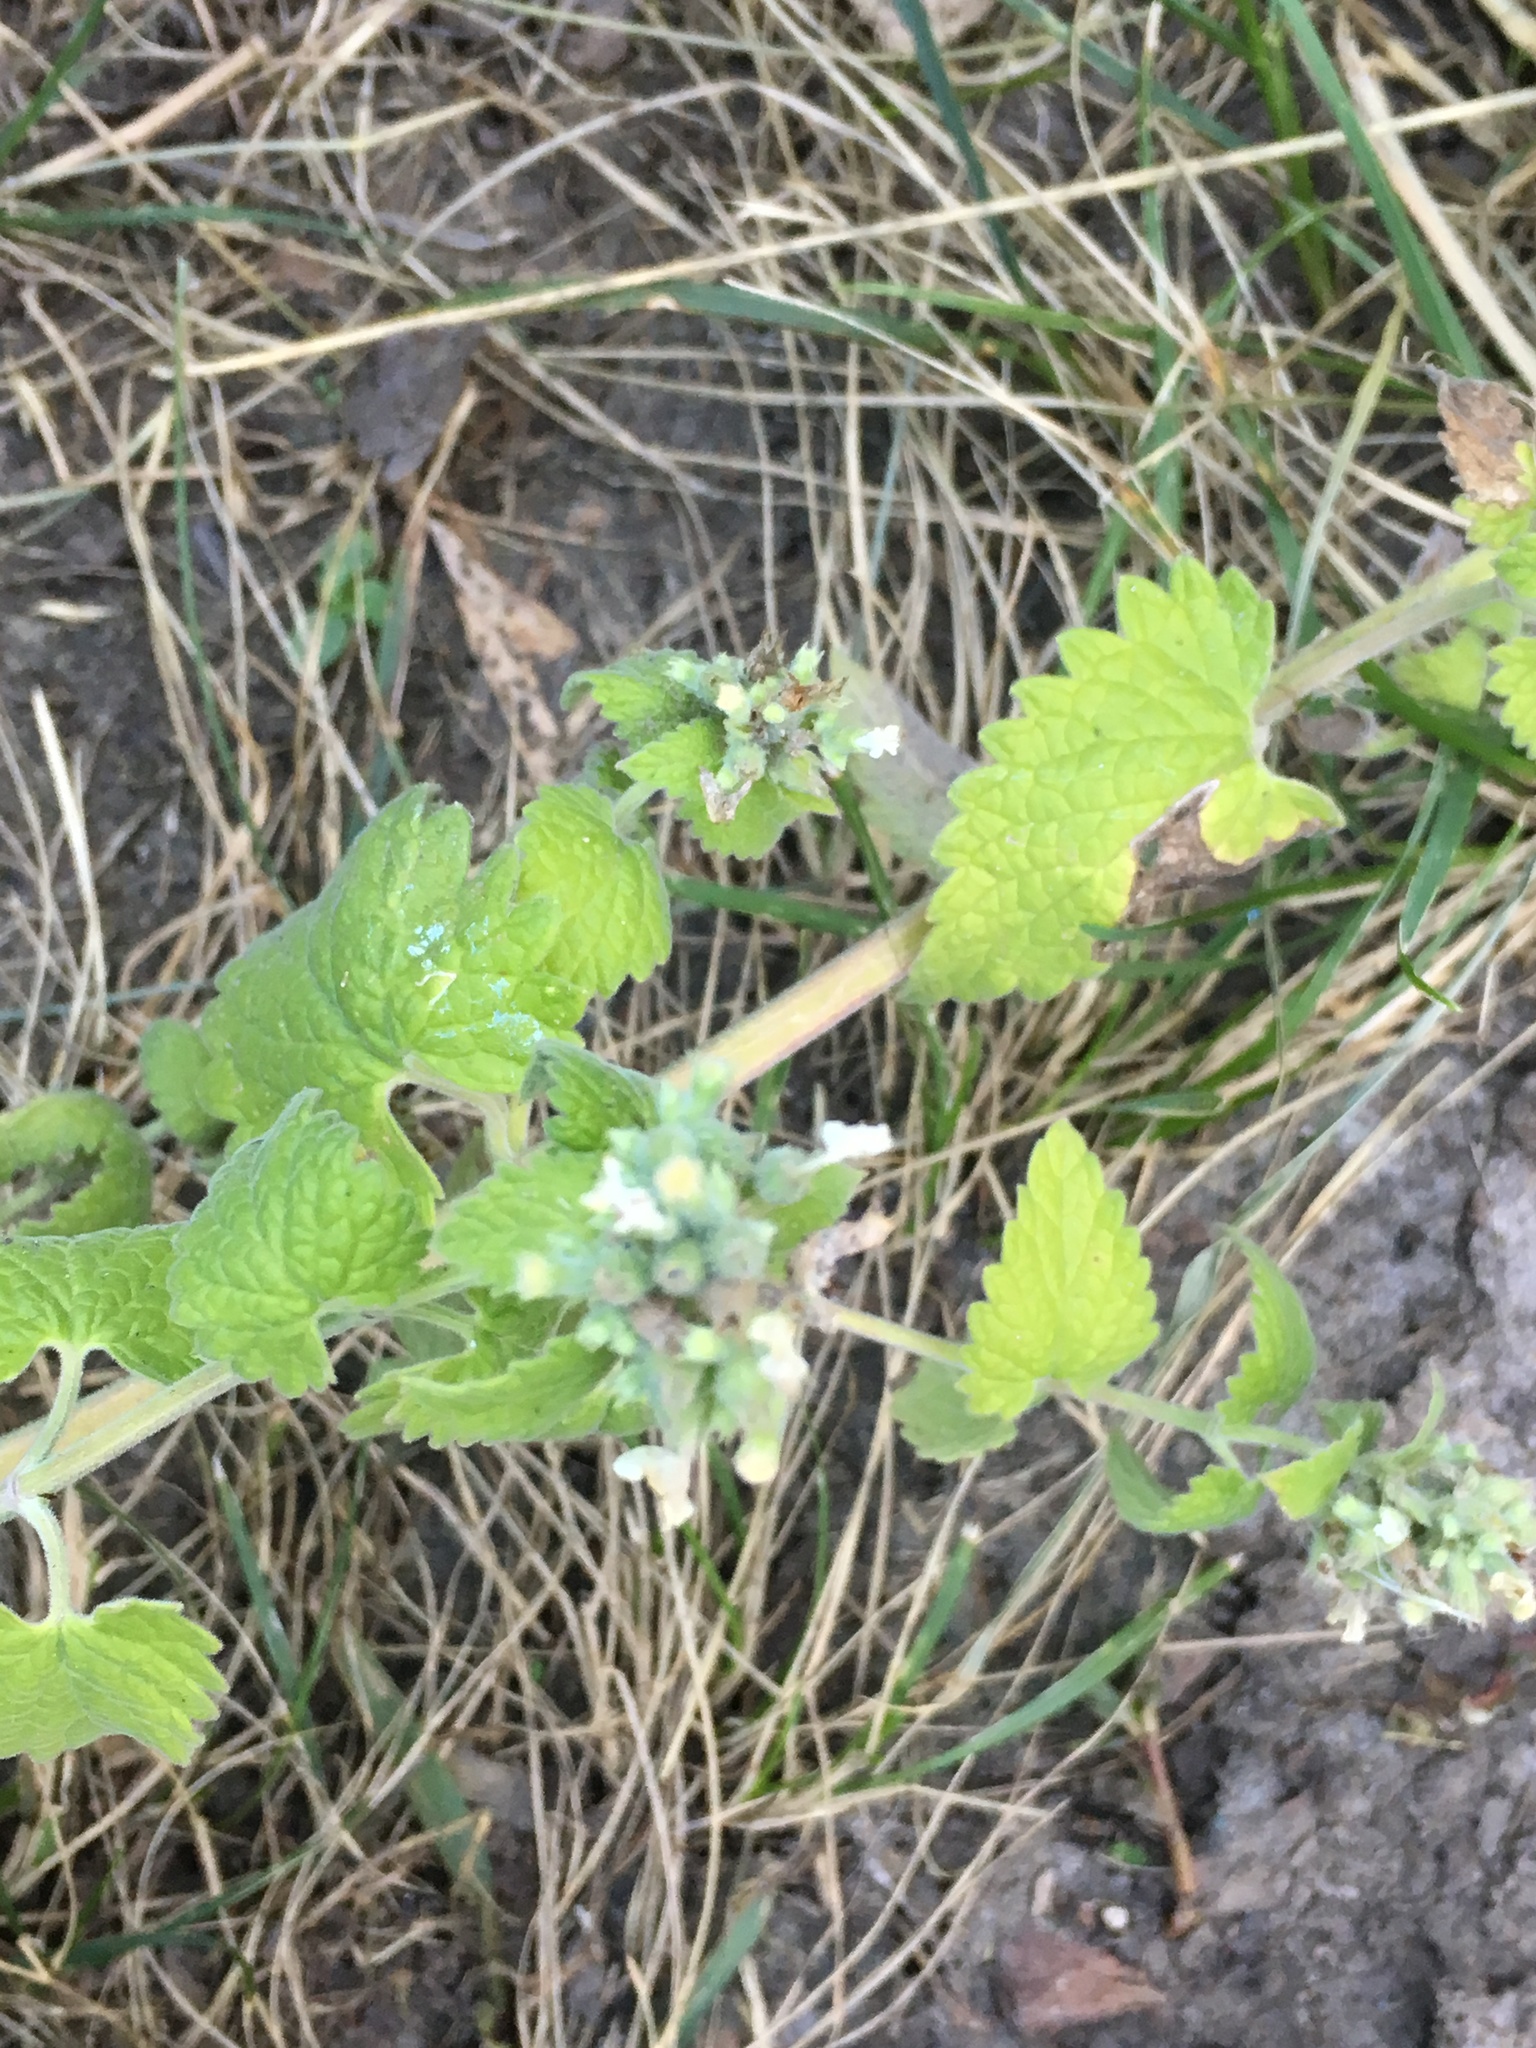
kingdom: Plantae
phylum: Tracheophyta
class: Magnoliopsida
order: Lamiales
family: Lamiaceae
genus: Nepeta
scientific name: Nepeta cataria
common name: Catnip
